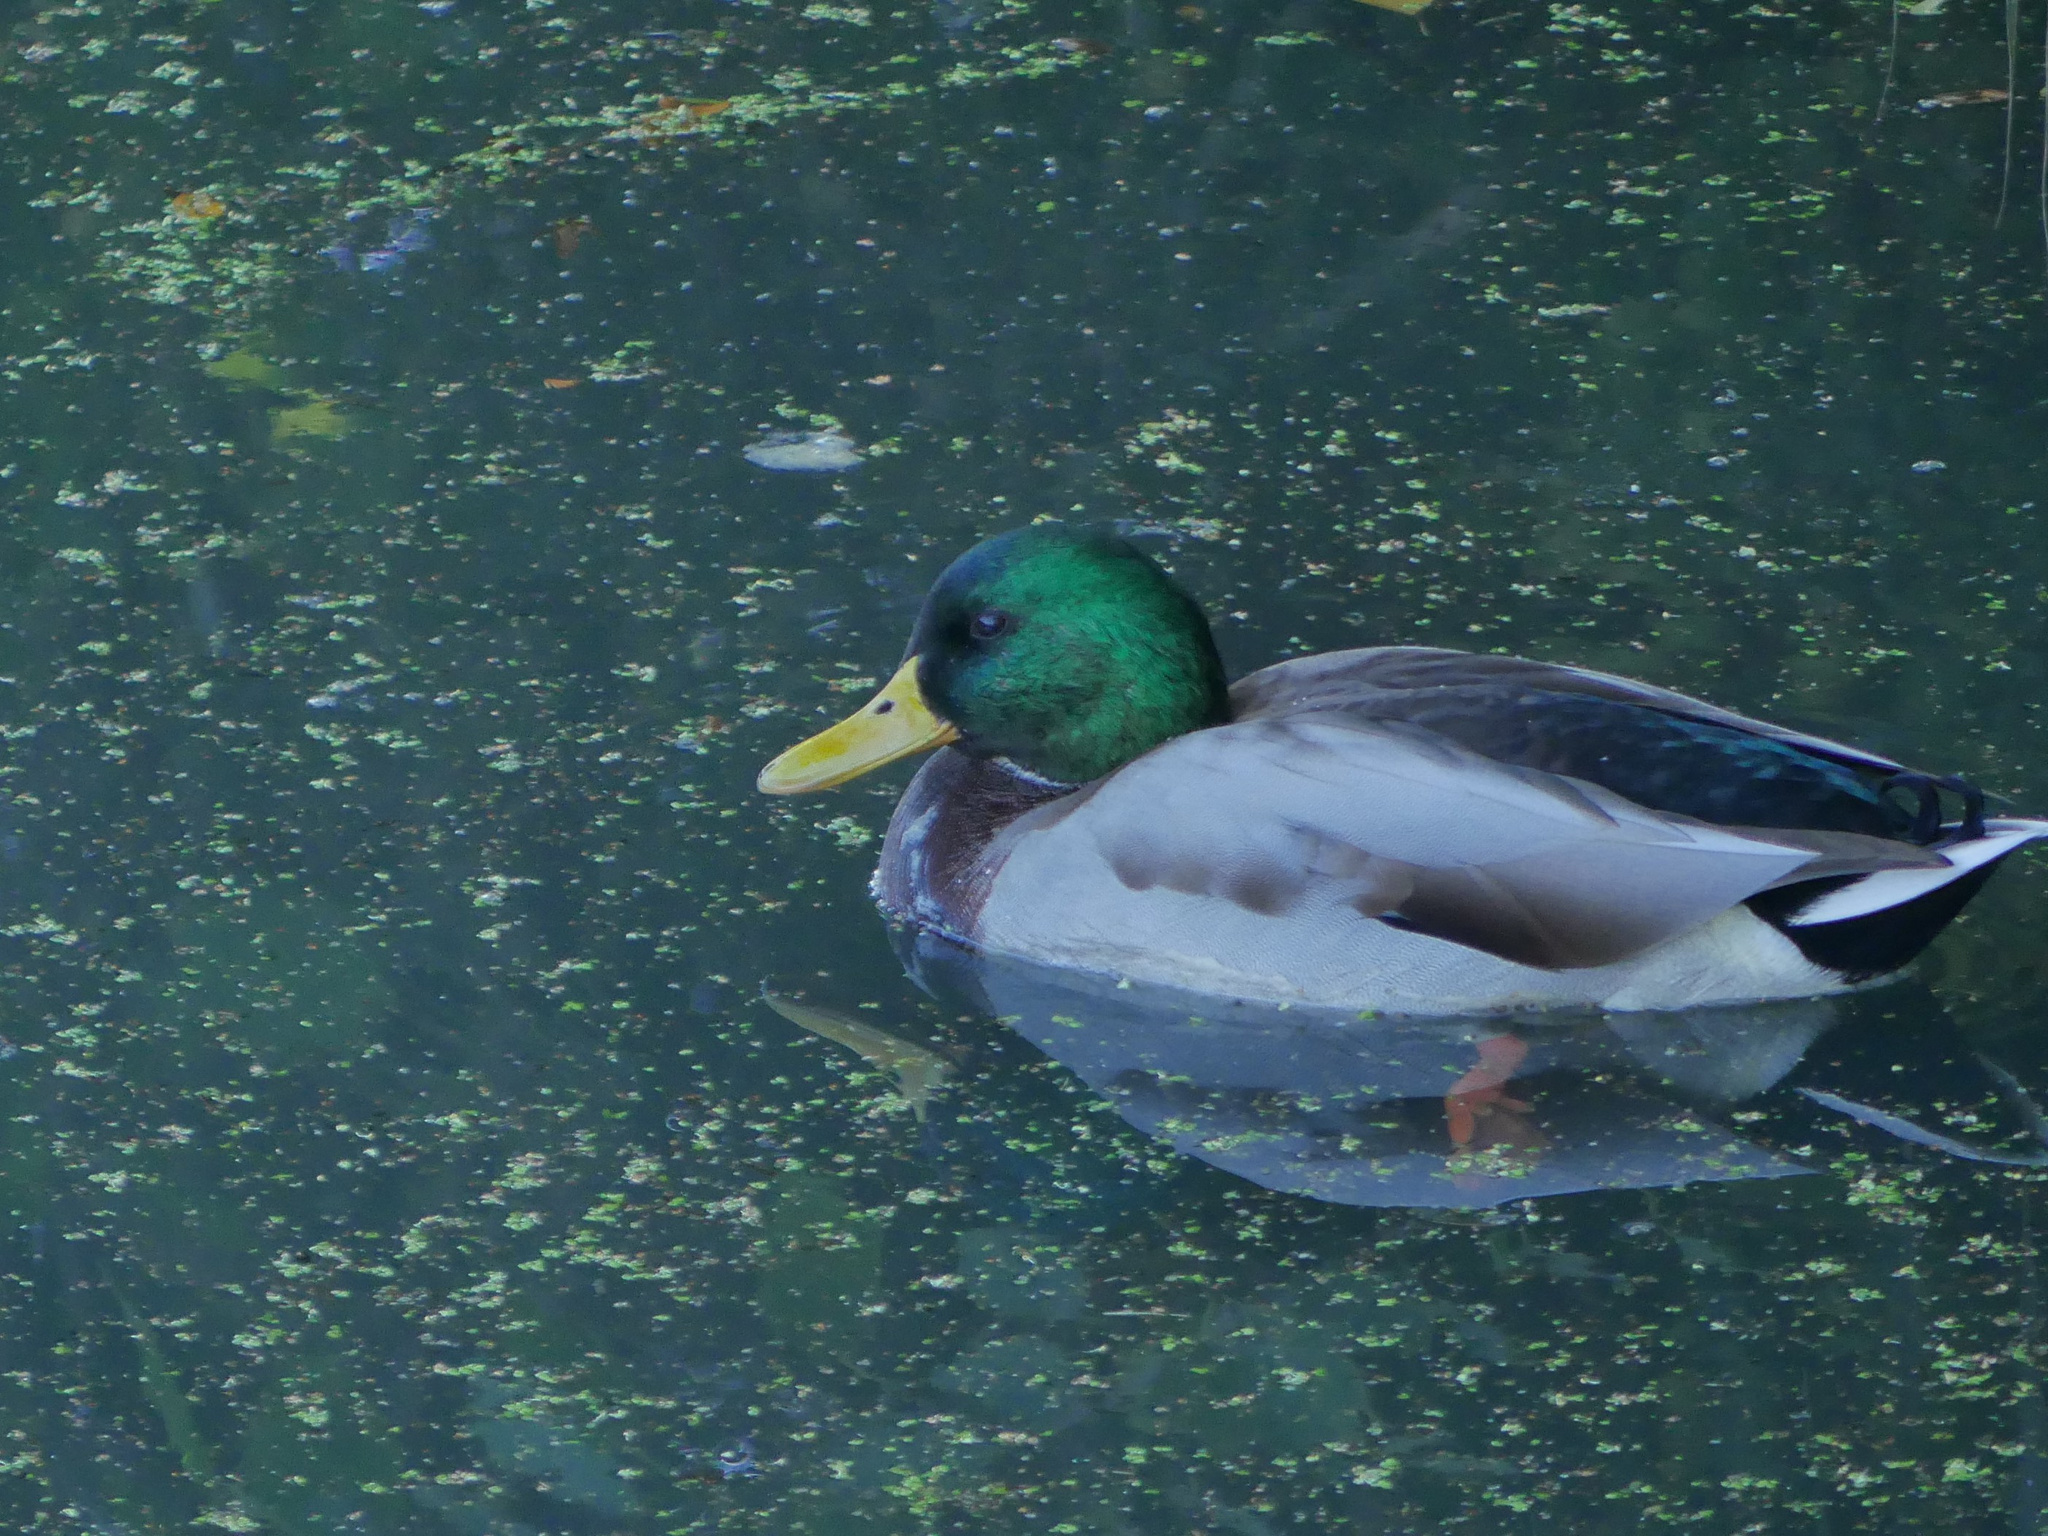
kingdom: Animalia
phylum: Chordata
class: Aves
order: Anseriformes
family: Anatidae
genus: Anas
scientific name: Anas platyrhynchos
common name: Mallard
